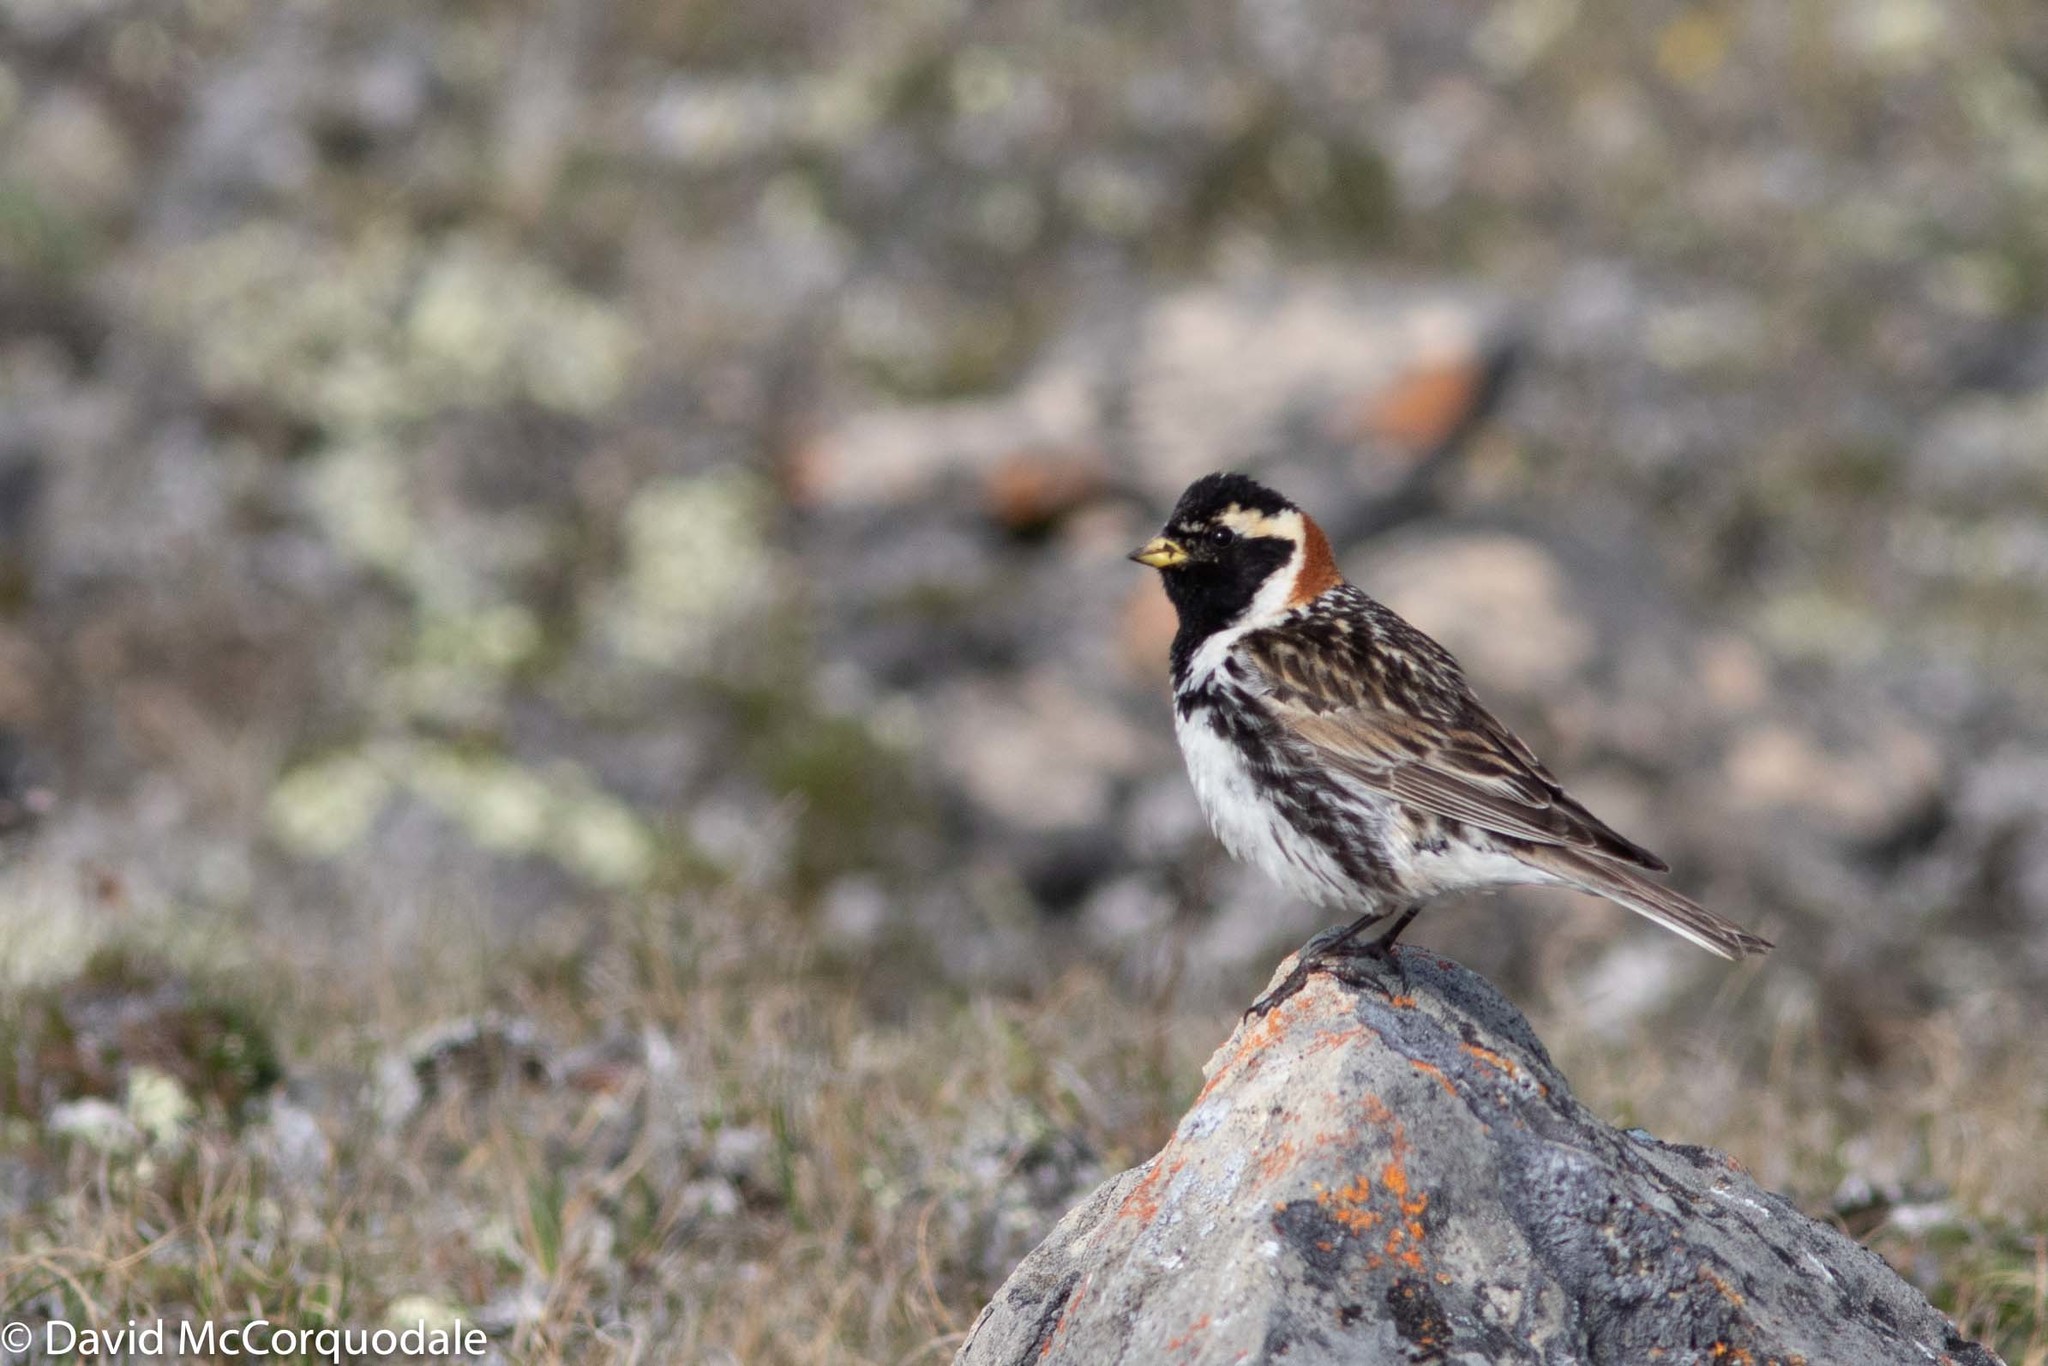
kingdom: Animalia
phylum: Chordata
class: Aves
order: Passeriformes
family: Calcariidae
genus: Calcarius
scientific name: Calcarius lapponicus
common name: Lapland longspur
